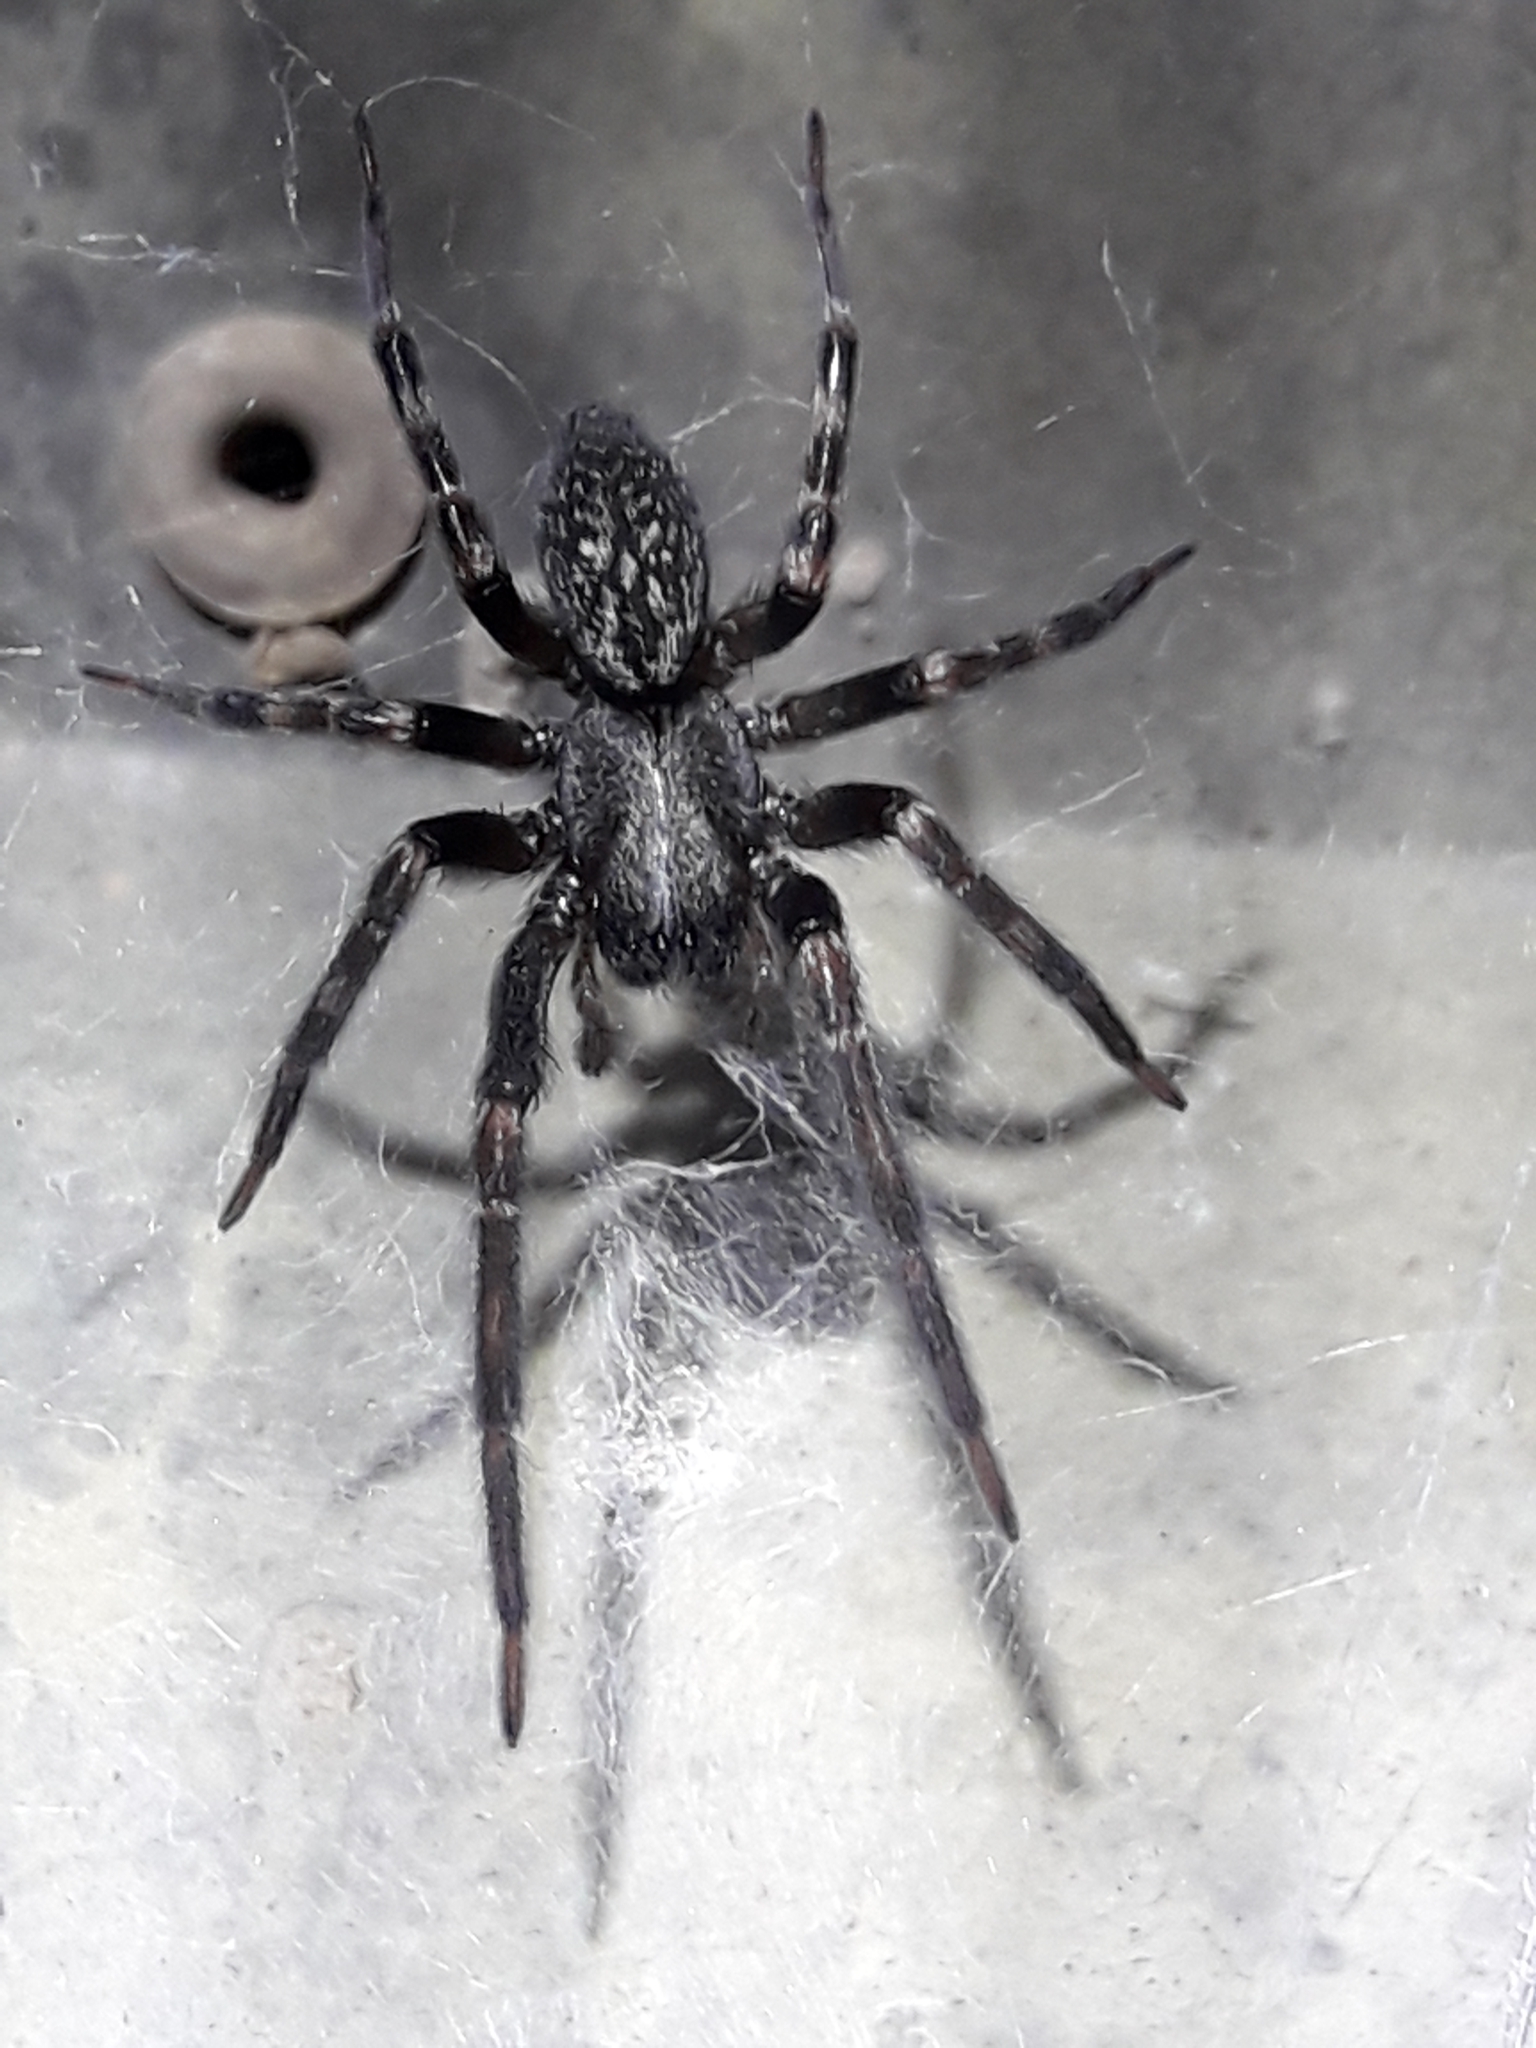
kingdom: Animalia
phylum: Arthropoda
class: Arachnida
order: Araneae
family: Desidae
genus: Badumna
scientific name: Badumna longinqua
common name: Gray house spider
